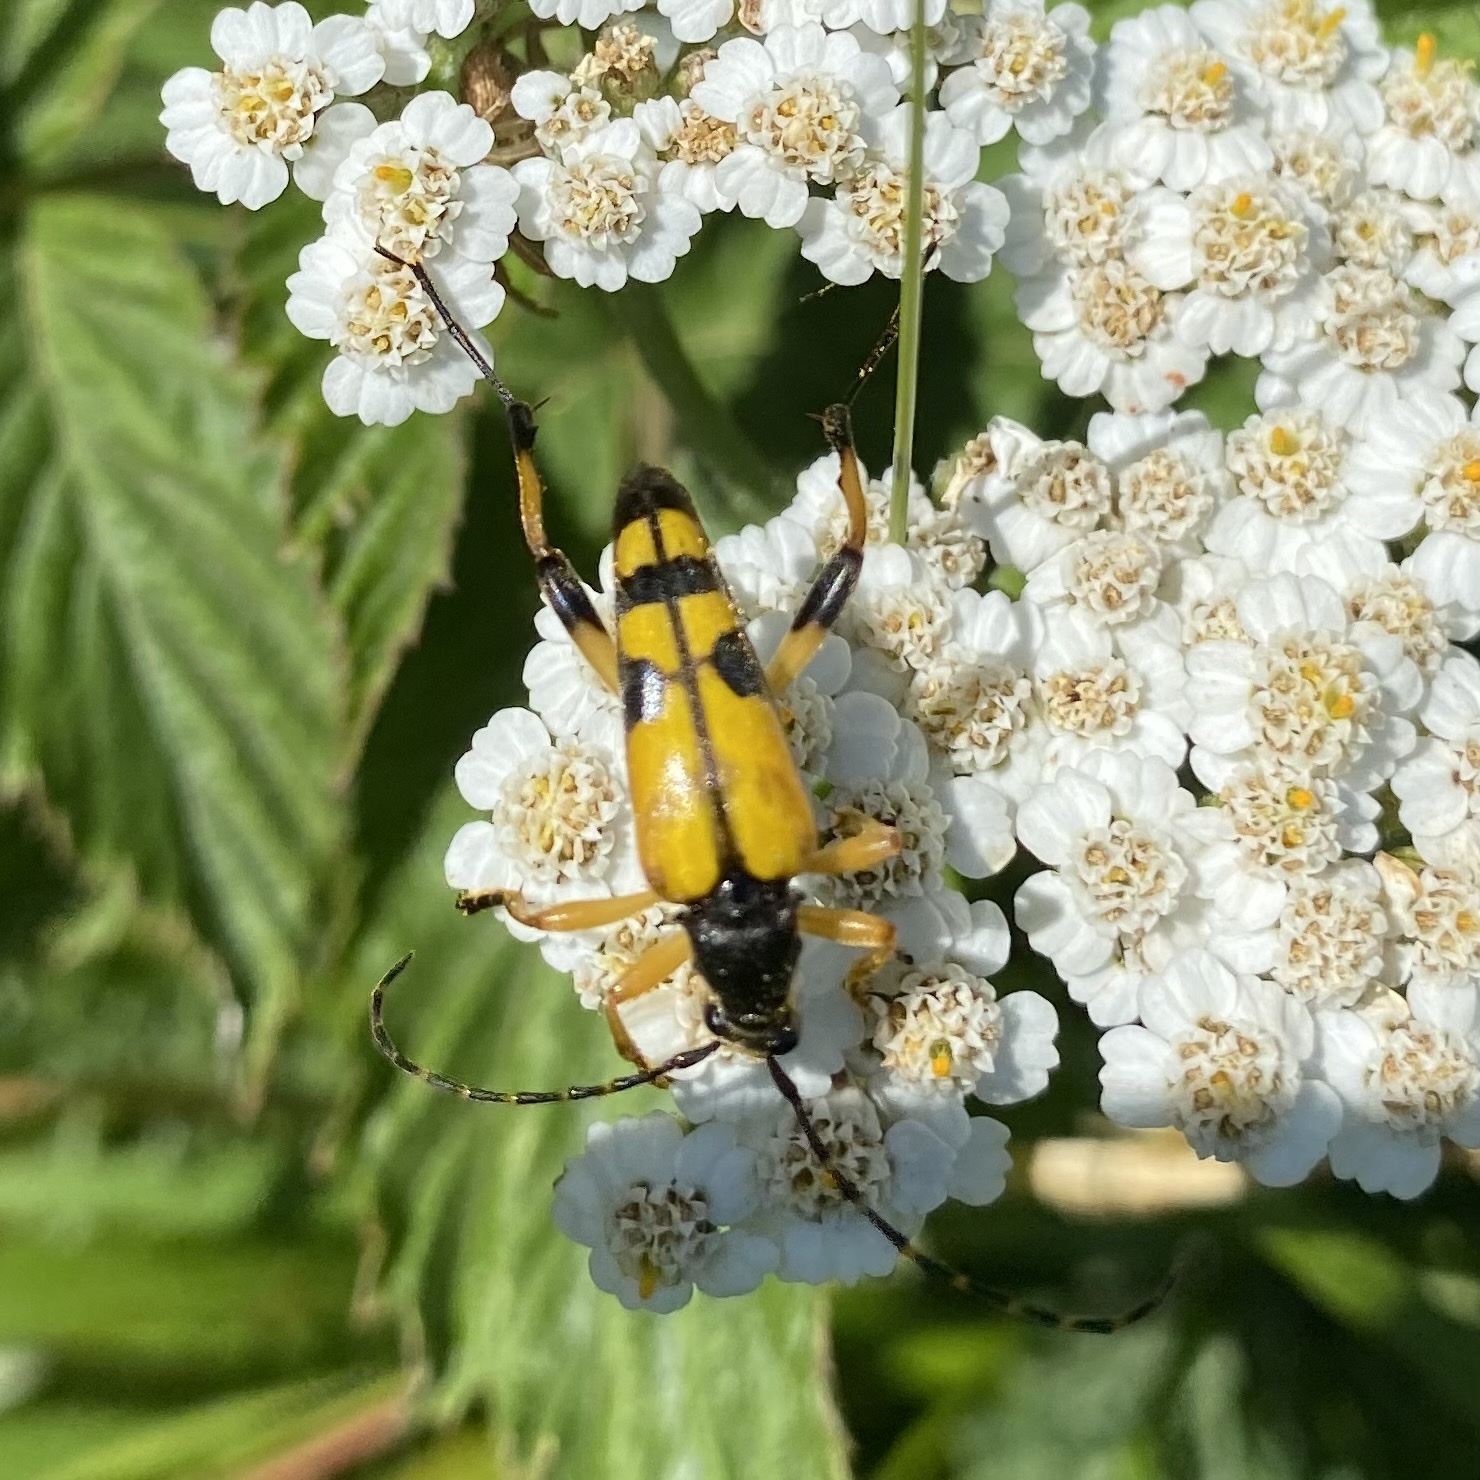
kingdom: Animalia
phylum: Arthropoda
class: Insecta
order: Coleoptera
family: Cerambycidae
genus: Rutpela
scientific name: Rutpela maculata
